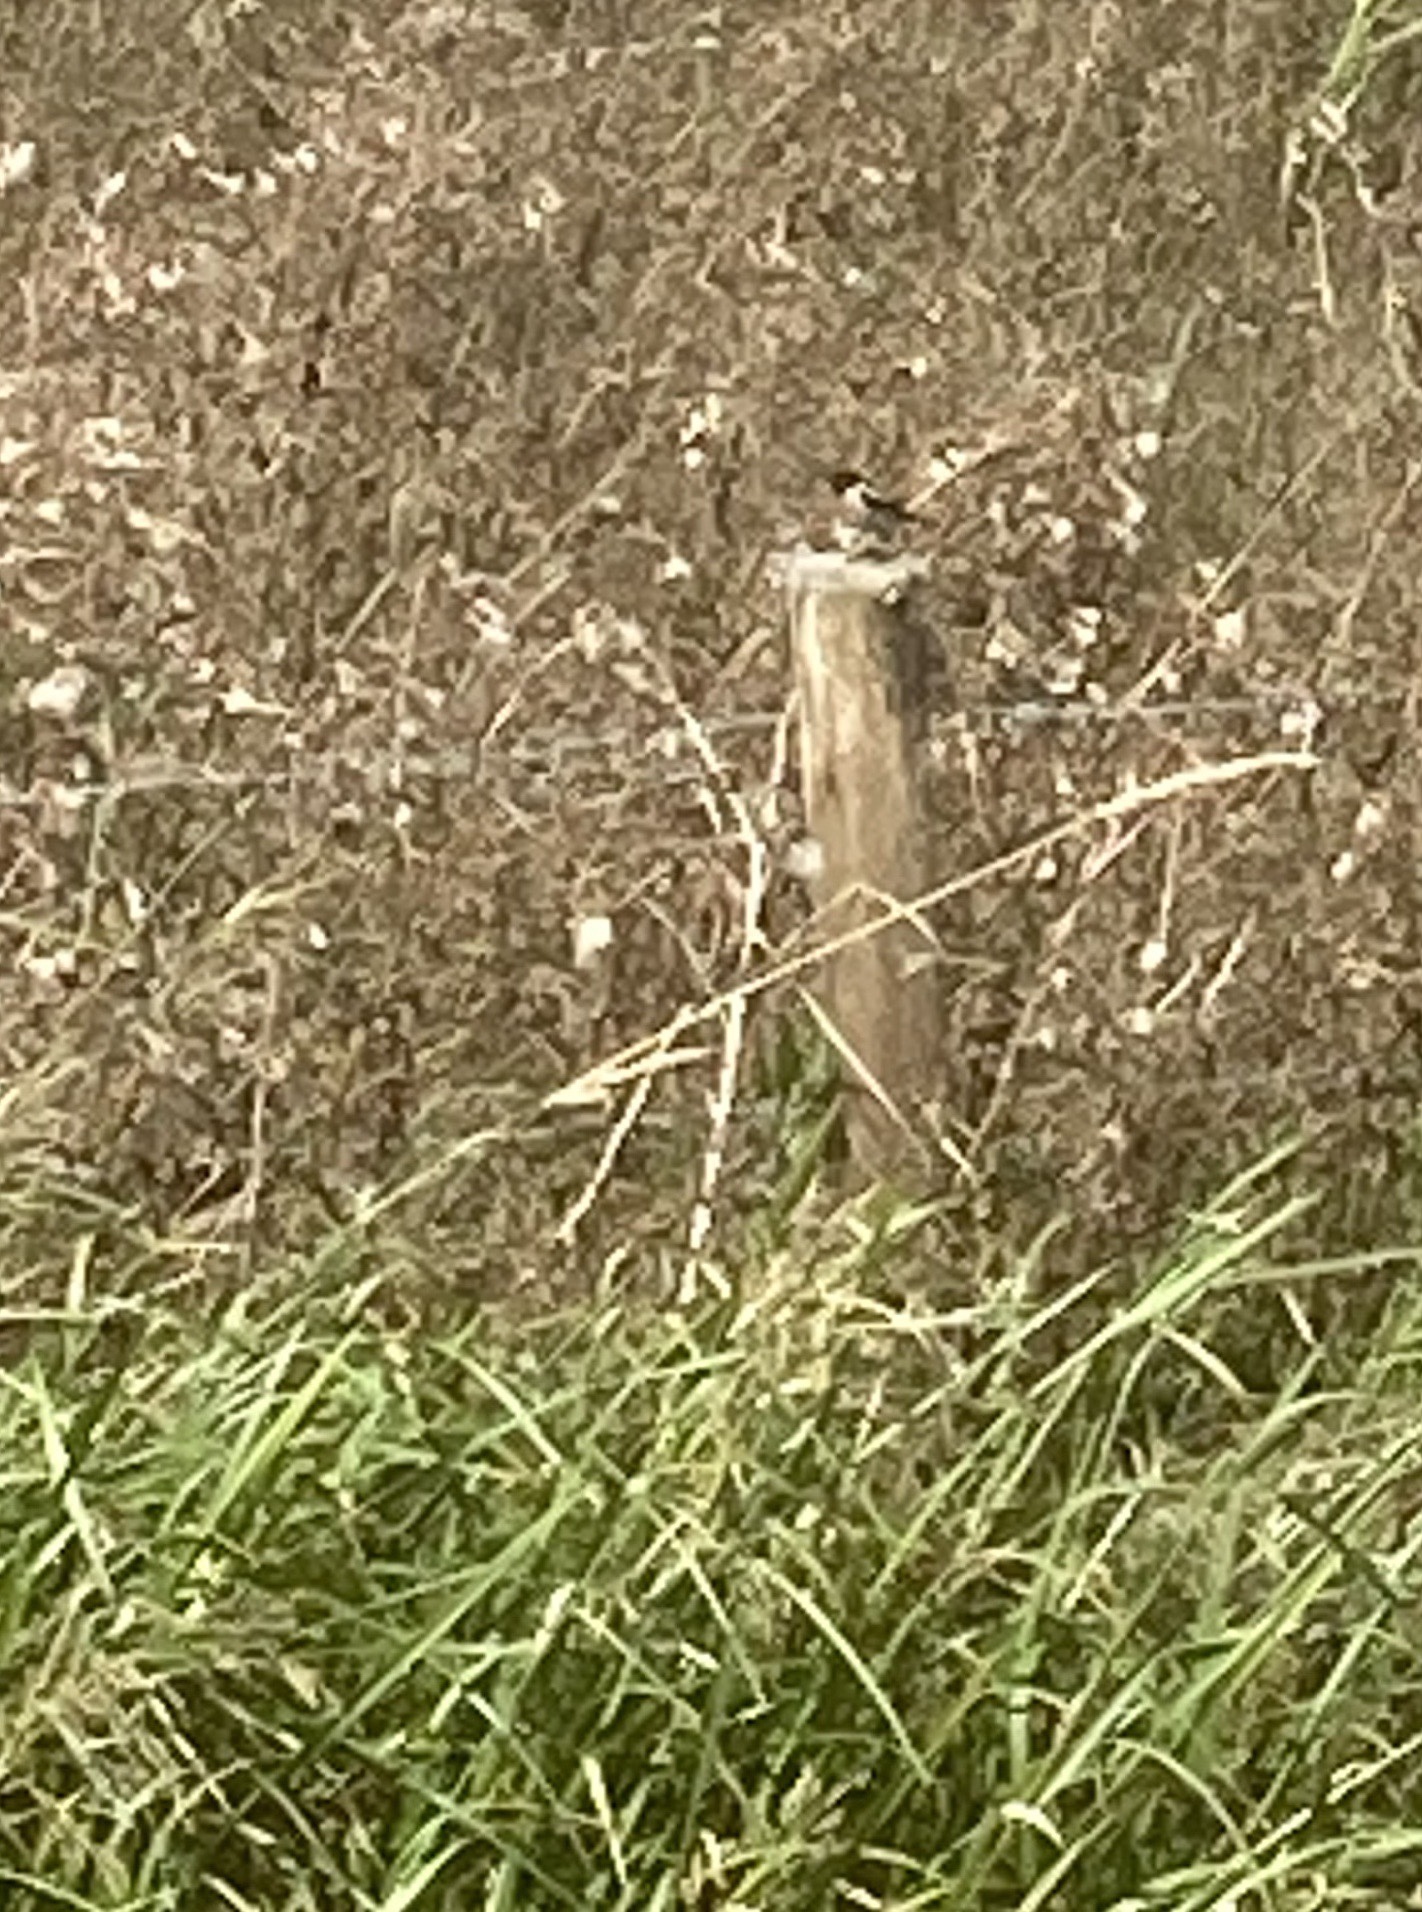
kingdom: Animalia
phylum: Chordata
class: Aves
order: Passeriformes
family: Muscicapidae
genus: Saxicola
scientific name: Saxicola rubicola
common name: European stonechat
